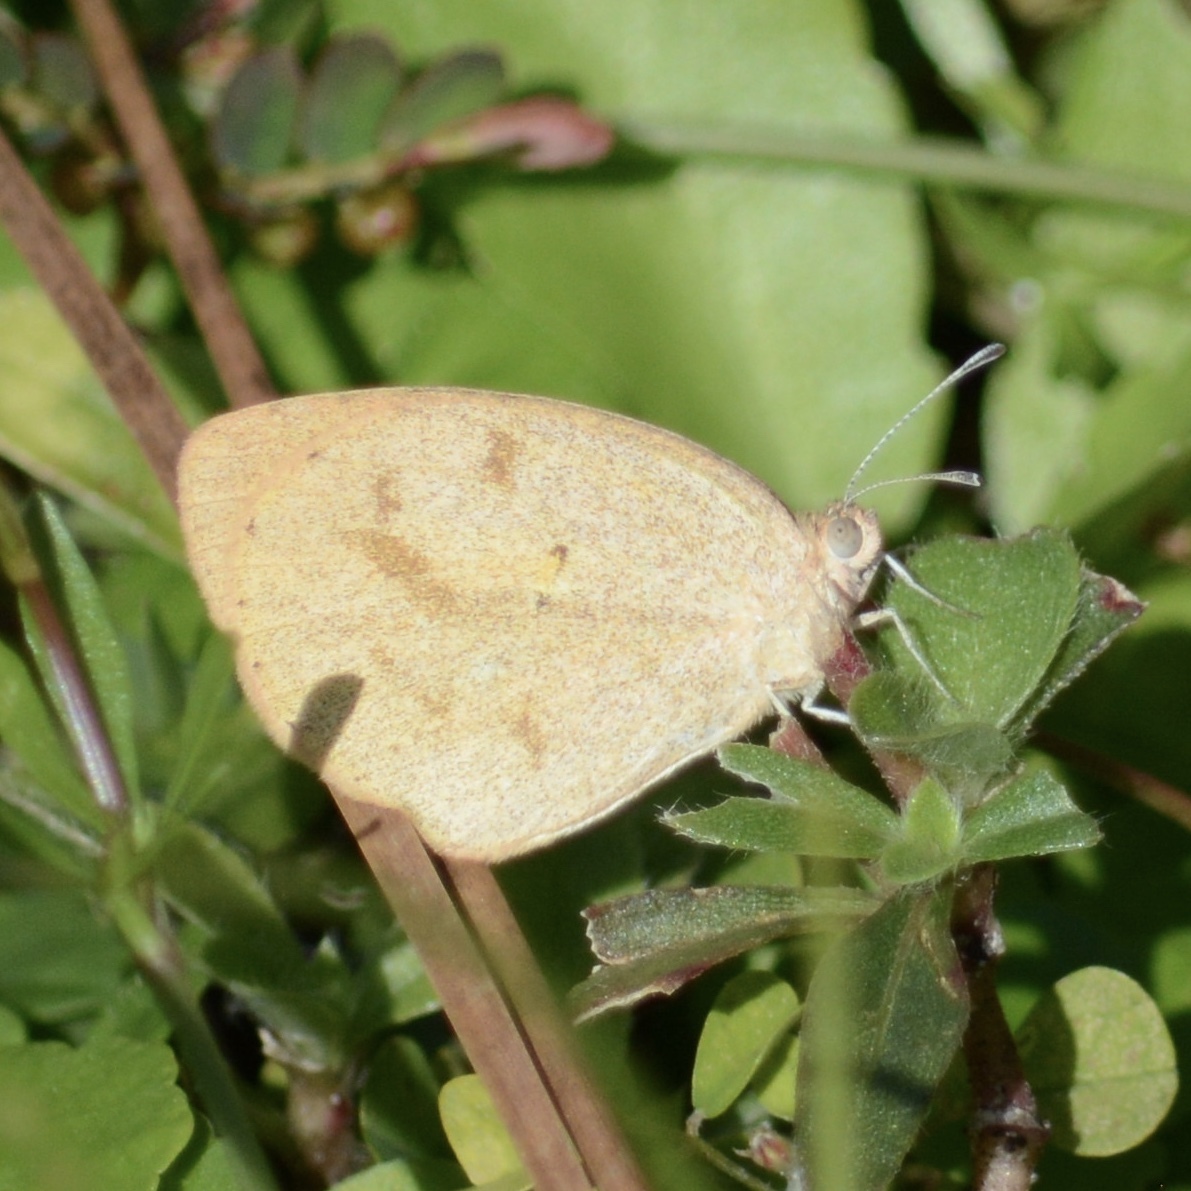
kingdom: Animalia
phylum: Arthropoda
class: Insecta
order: Lepidoptera
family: Pieridae
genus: Eurema
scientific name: Eurema daira
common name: Barred sulphur
